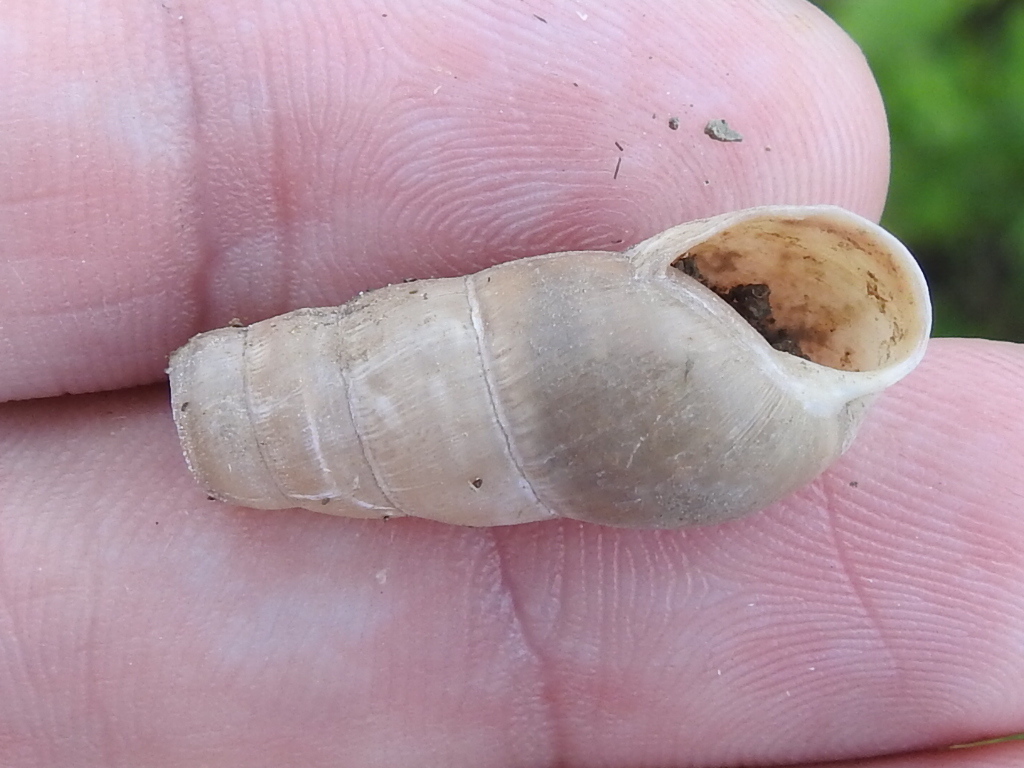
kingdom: Animalia
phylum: Mollusca
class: Gastropoda
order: Stylommatophora
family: Achatinidae
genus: Rumina
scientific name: Rumina decollata
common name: Decollate snail
